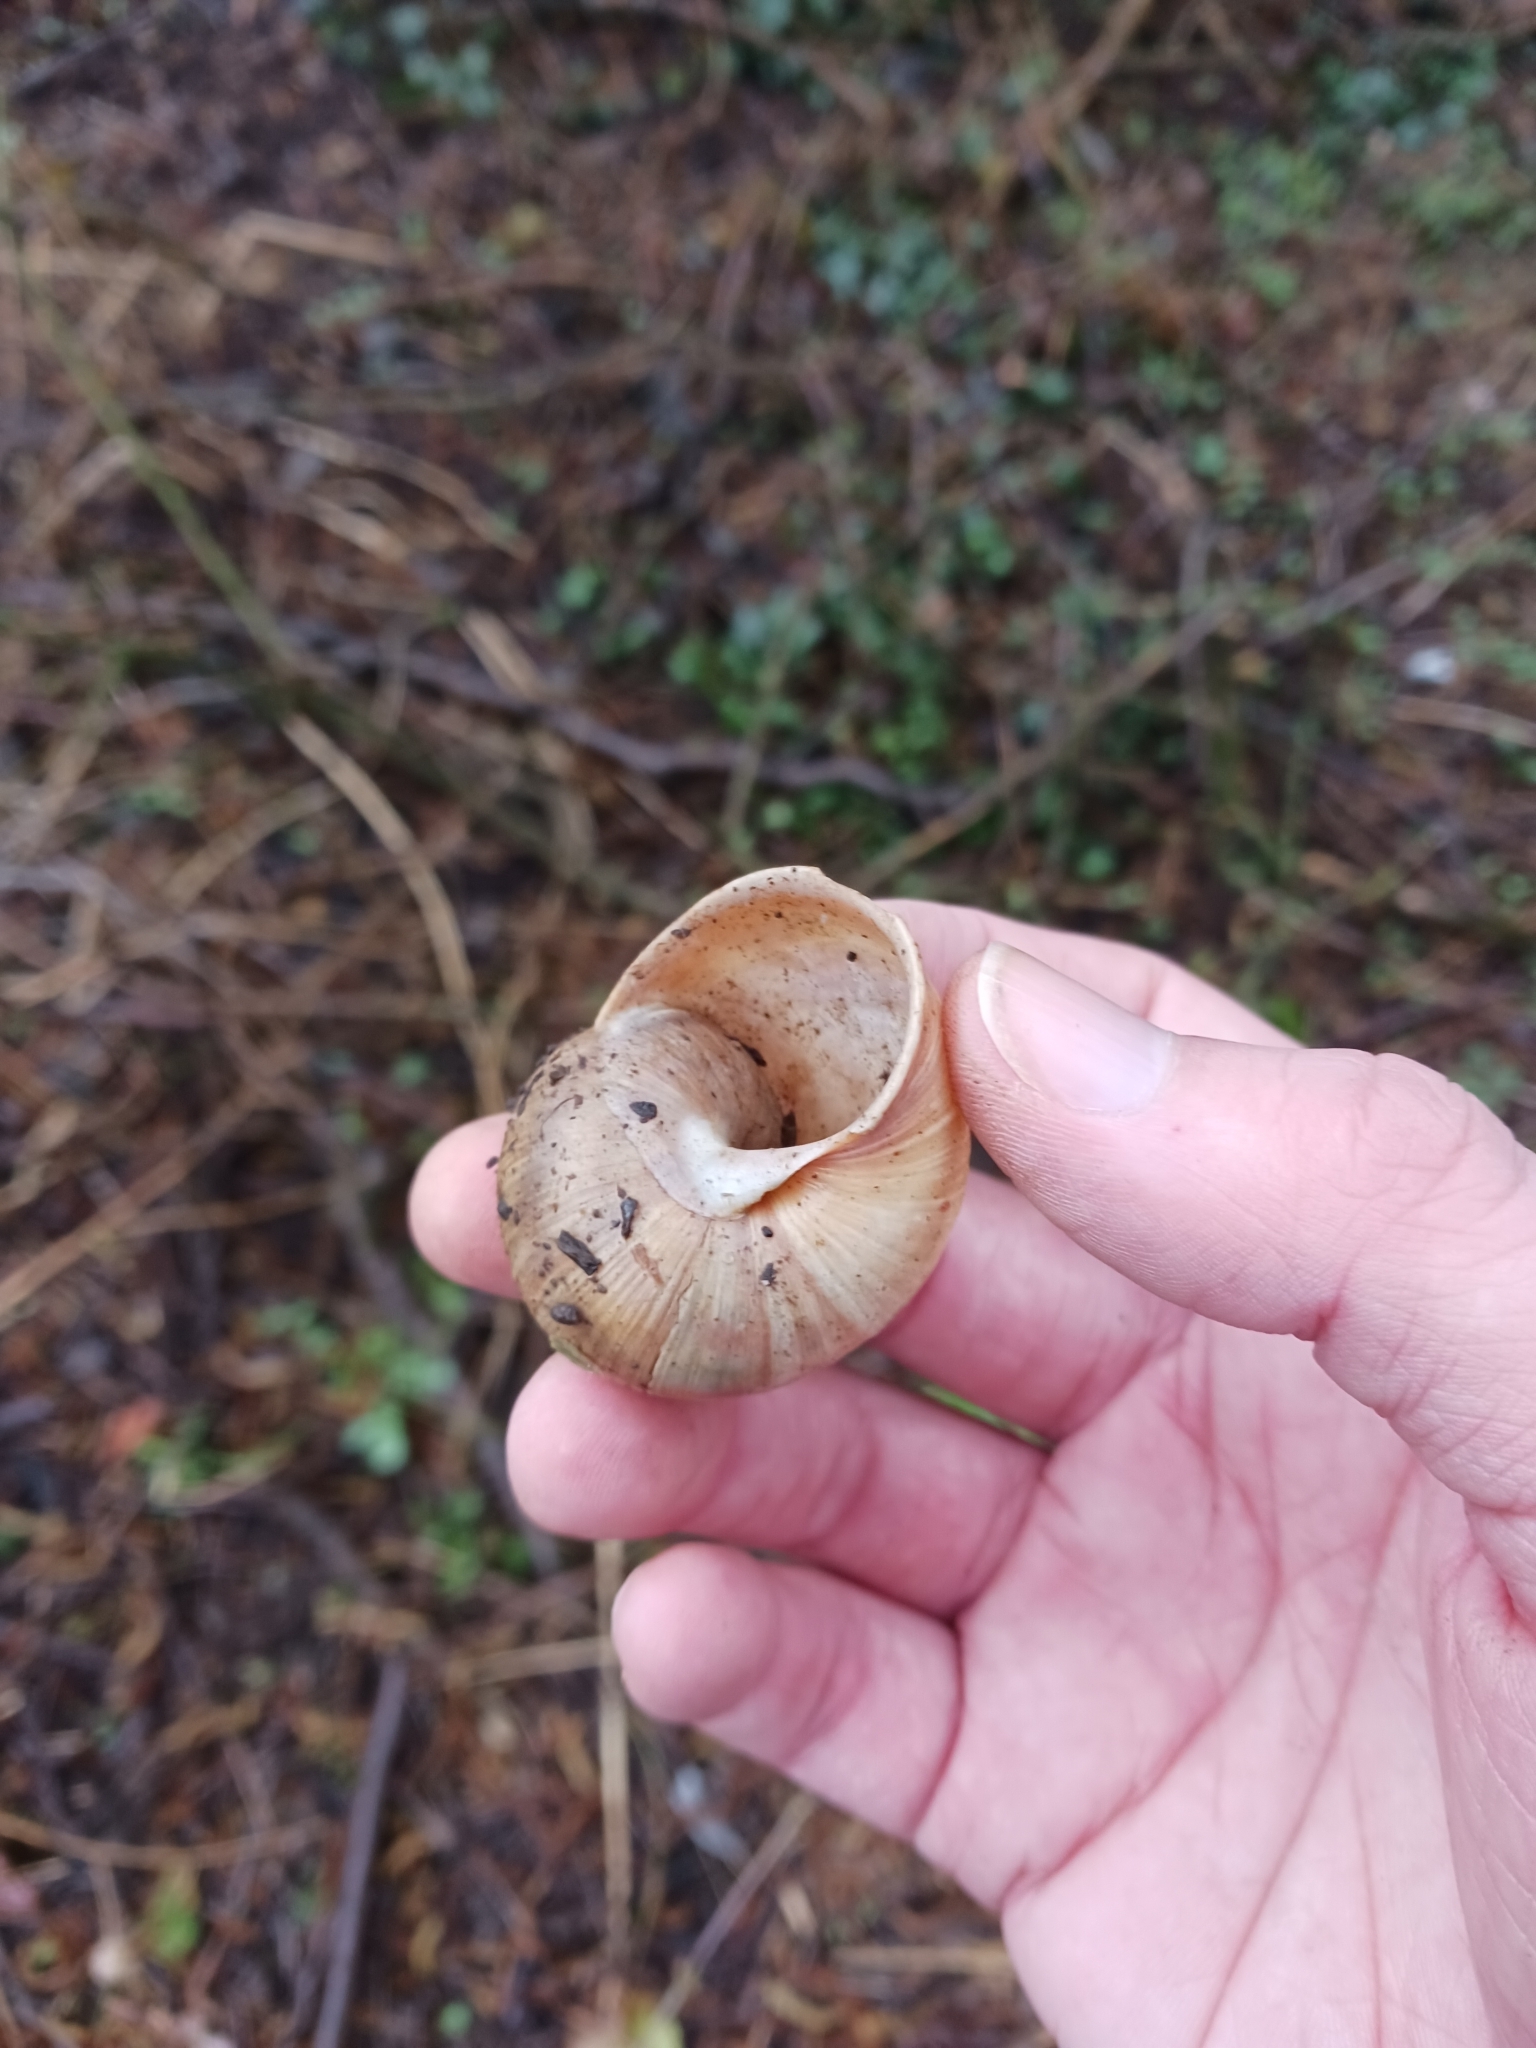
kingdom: Animalia
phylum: Mollusca
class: Gastropoda
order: Stylommatophora
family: Helicidae
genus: Helix
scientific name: Helix pomatia
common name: Roman snail
